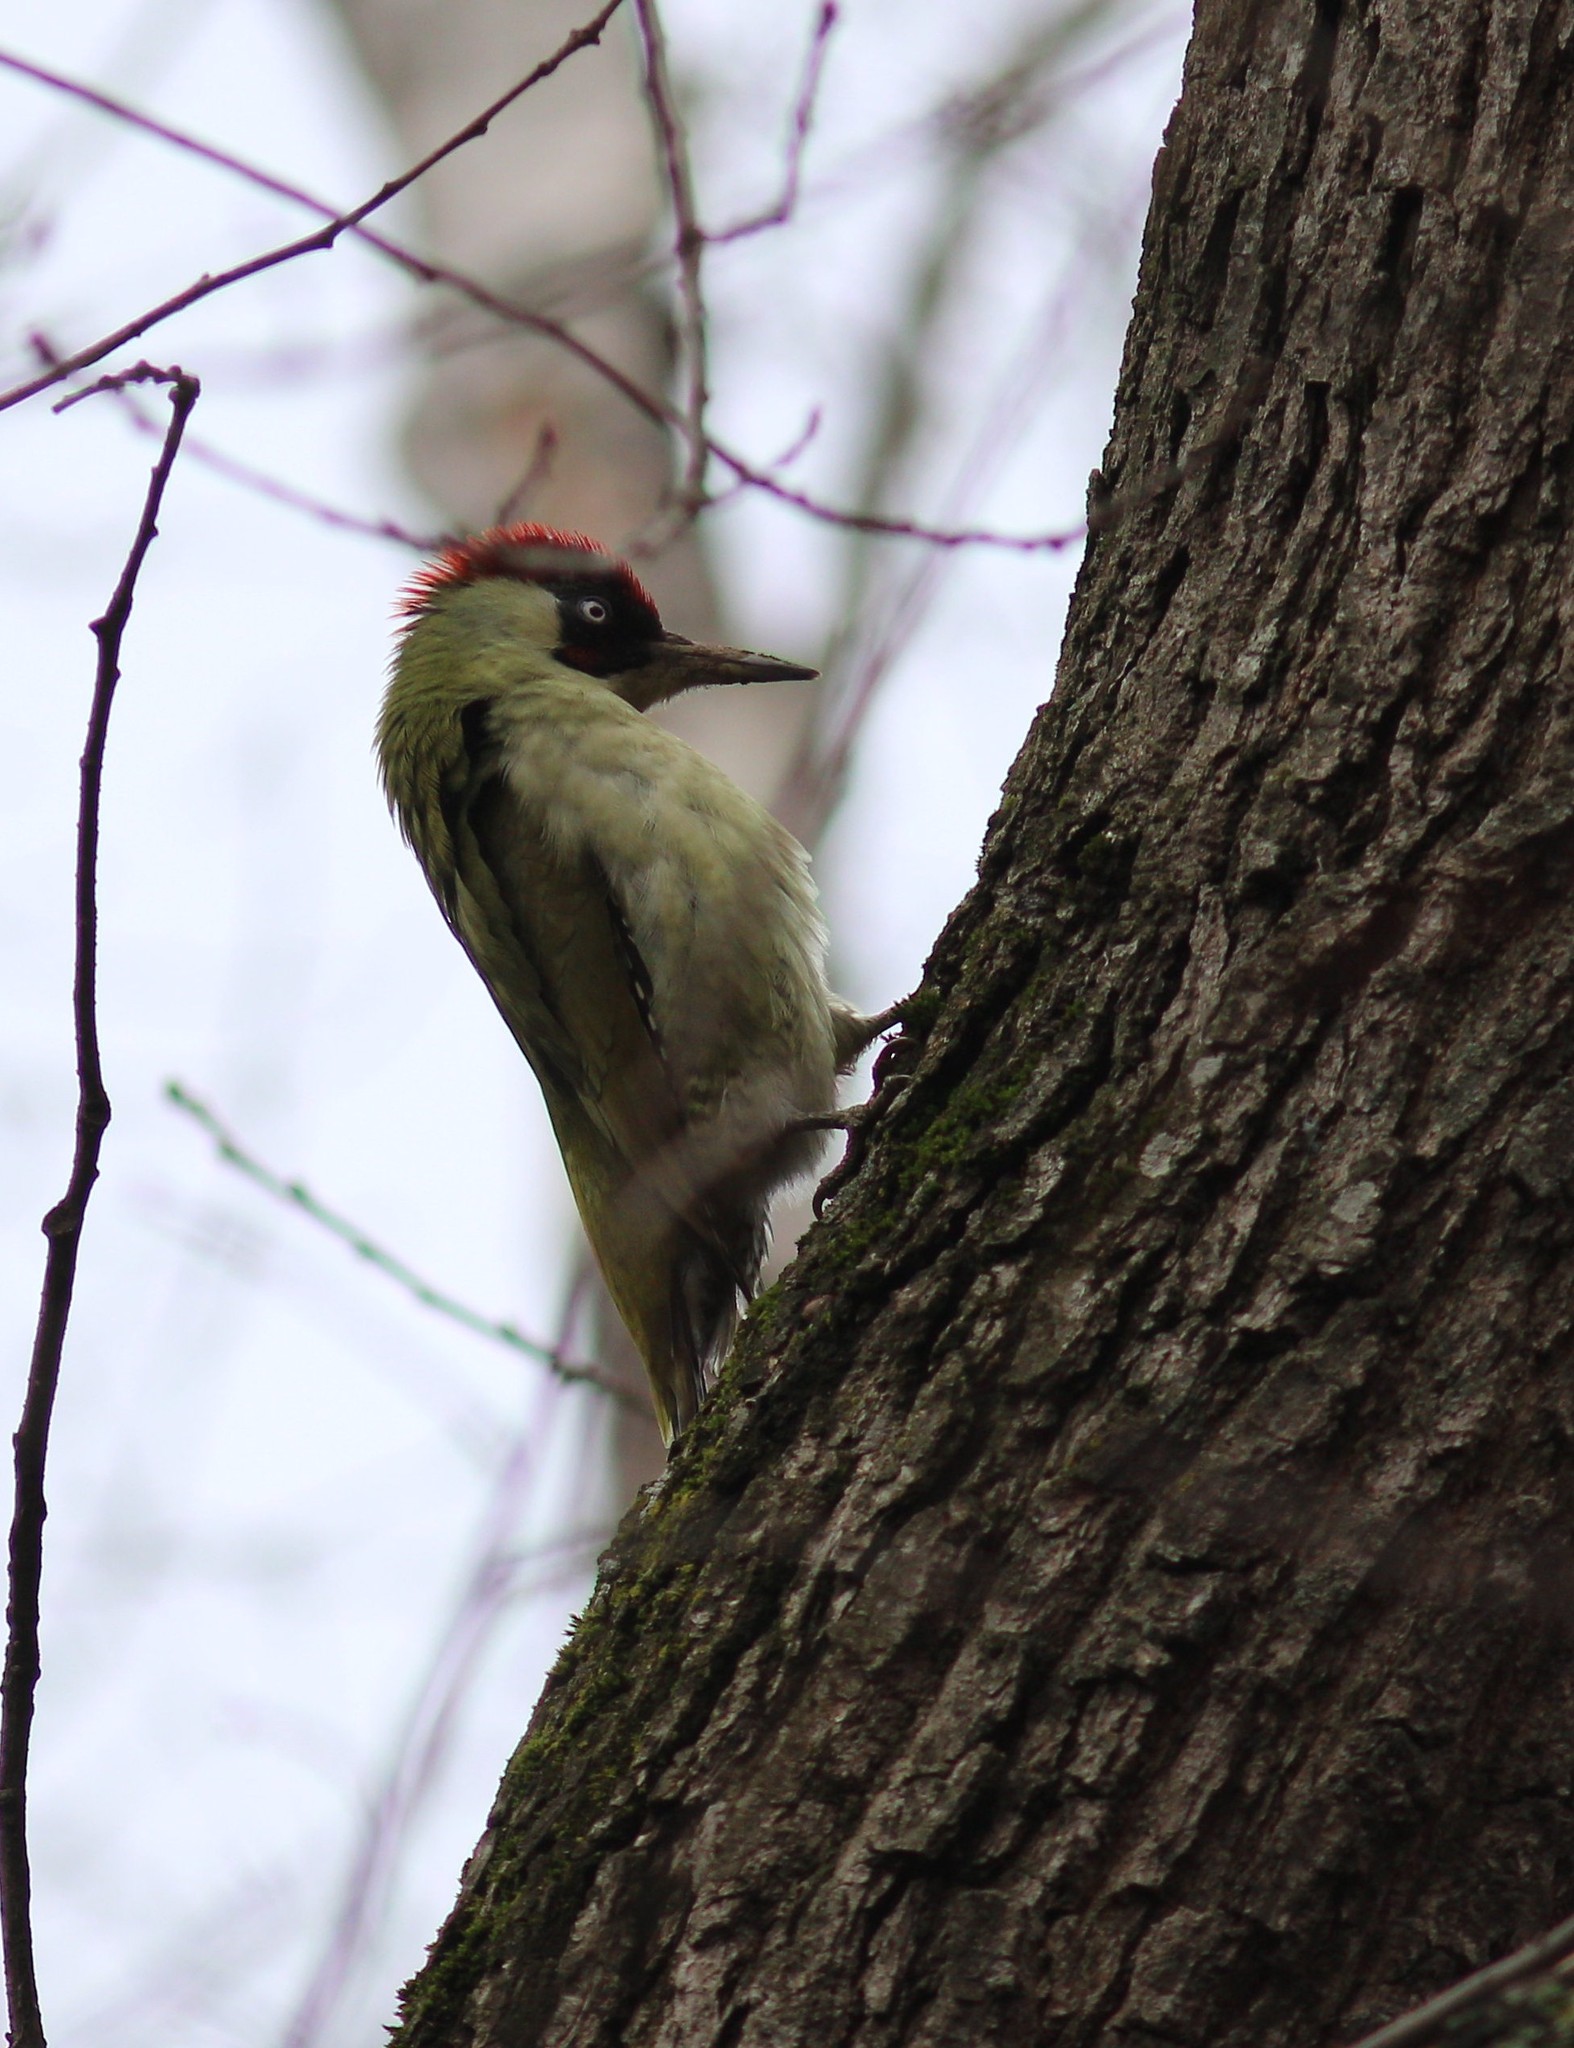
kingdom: Animalia
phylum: Chordata
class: Aves
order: Piciformes
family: Picidae
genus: Picus
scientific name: Picus viridis
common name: European green woodpecker
